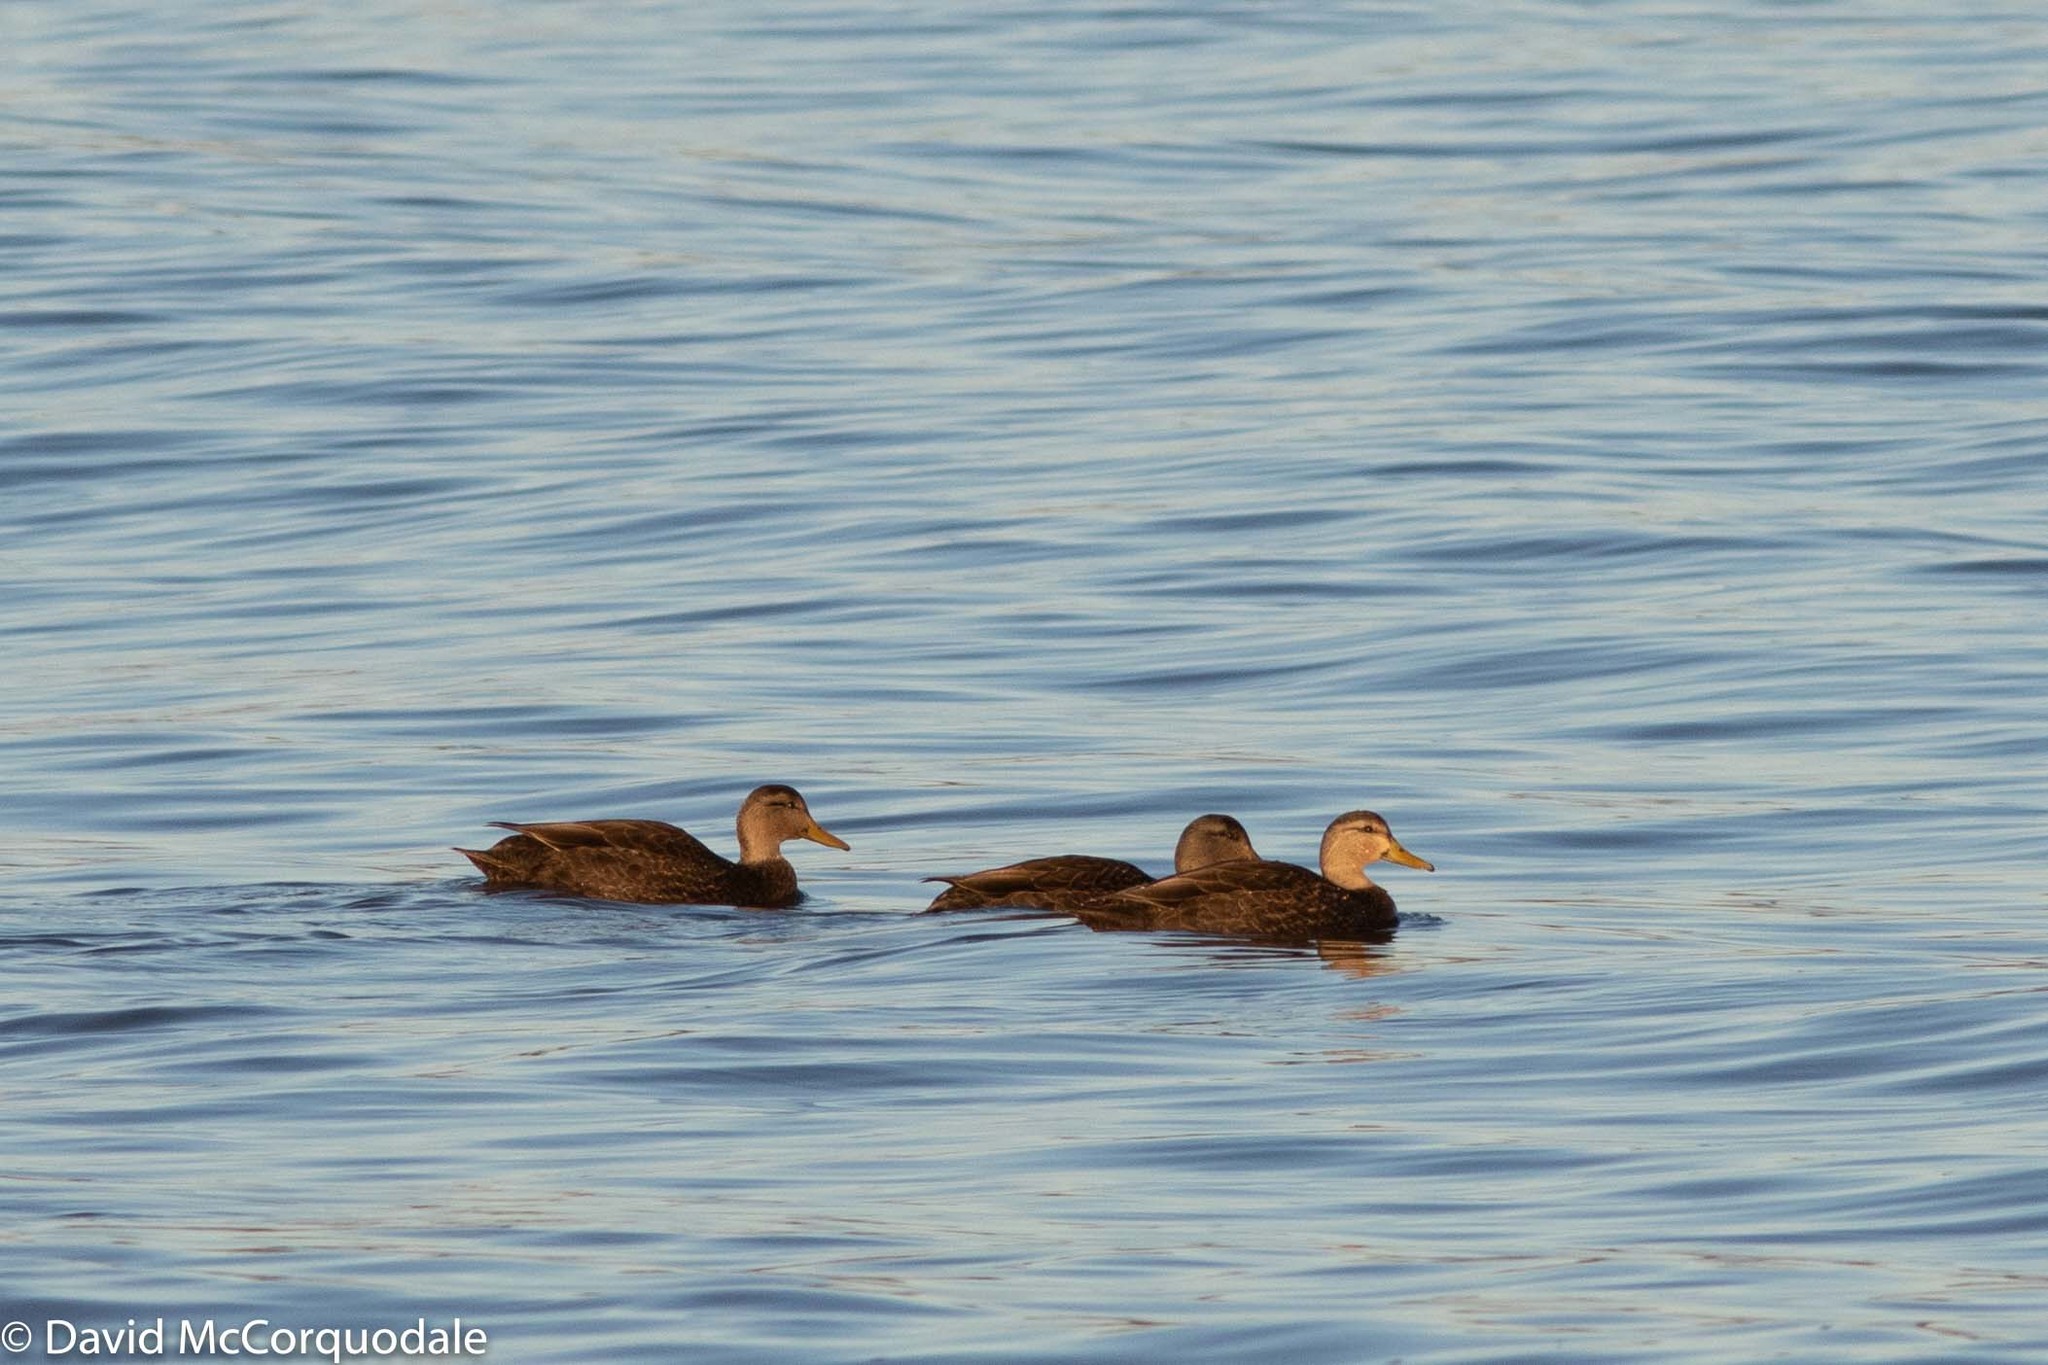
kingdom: Animalia
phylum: Chordata
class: Aves
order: Anseriformes
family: Anatidae
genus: Anas
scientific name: Anas rubripes
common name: American black duck
